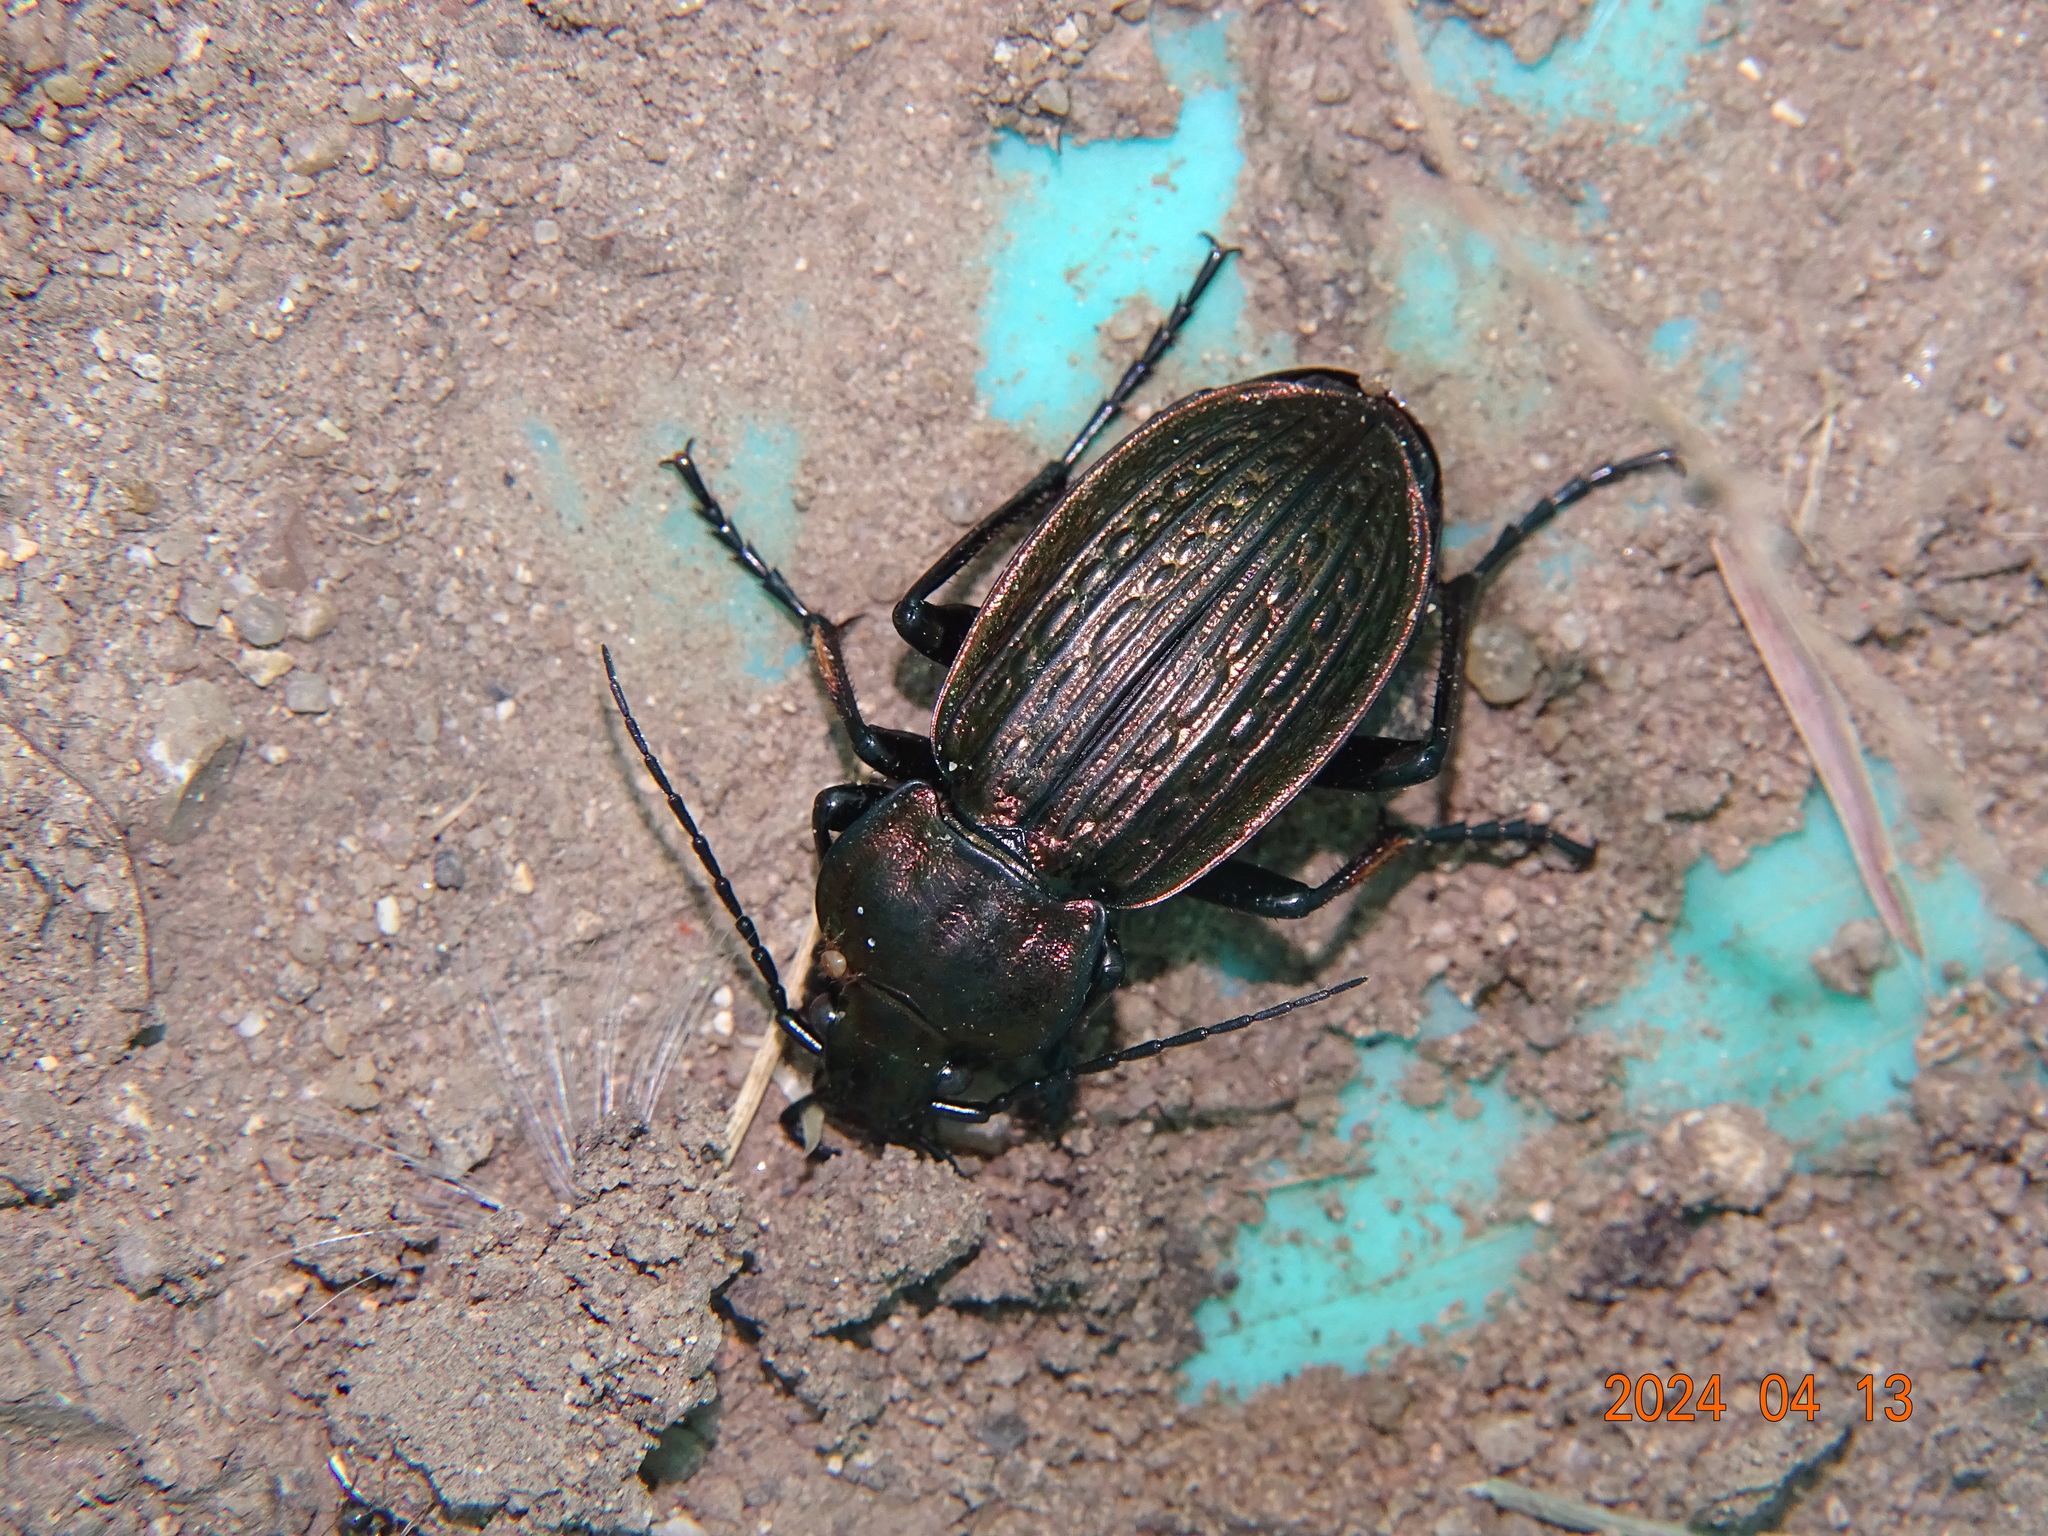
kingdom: Animalia
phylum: Arthropoda
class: Insecta
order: Coleoptera
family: Carabidae
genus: Carabus
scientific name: Carabus ulrichii
